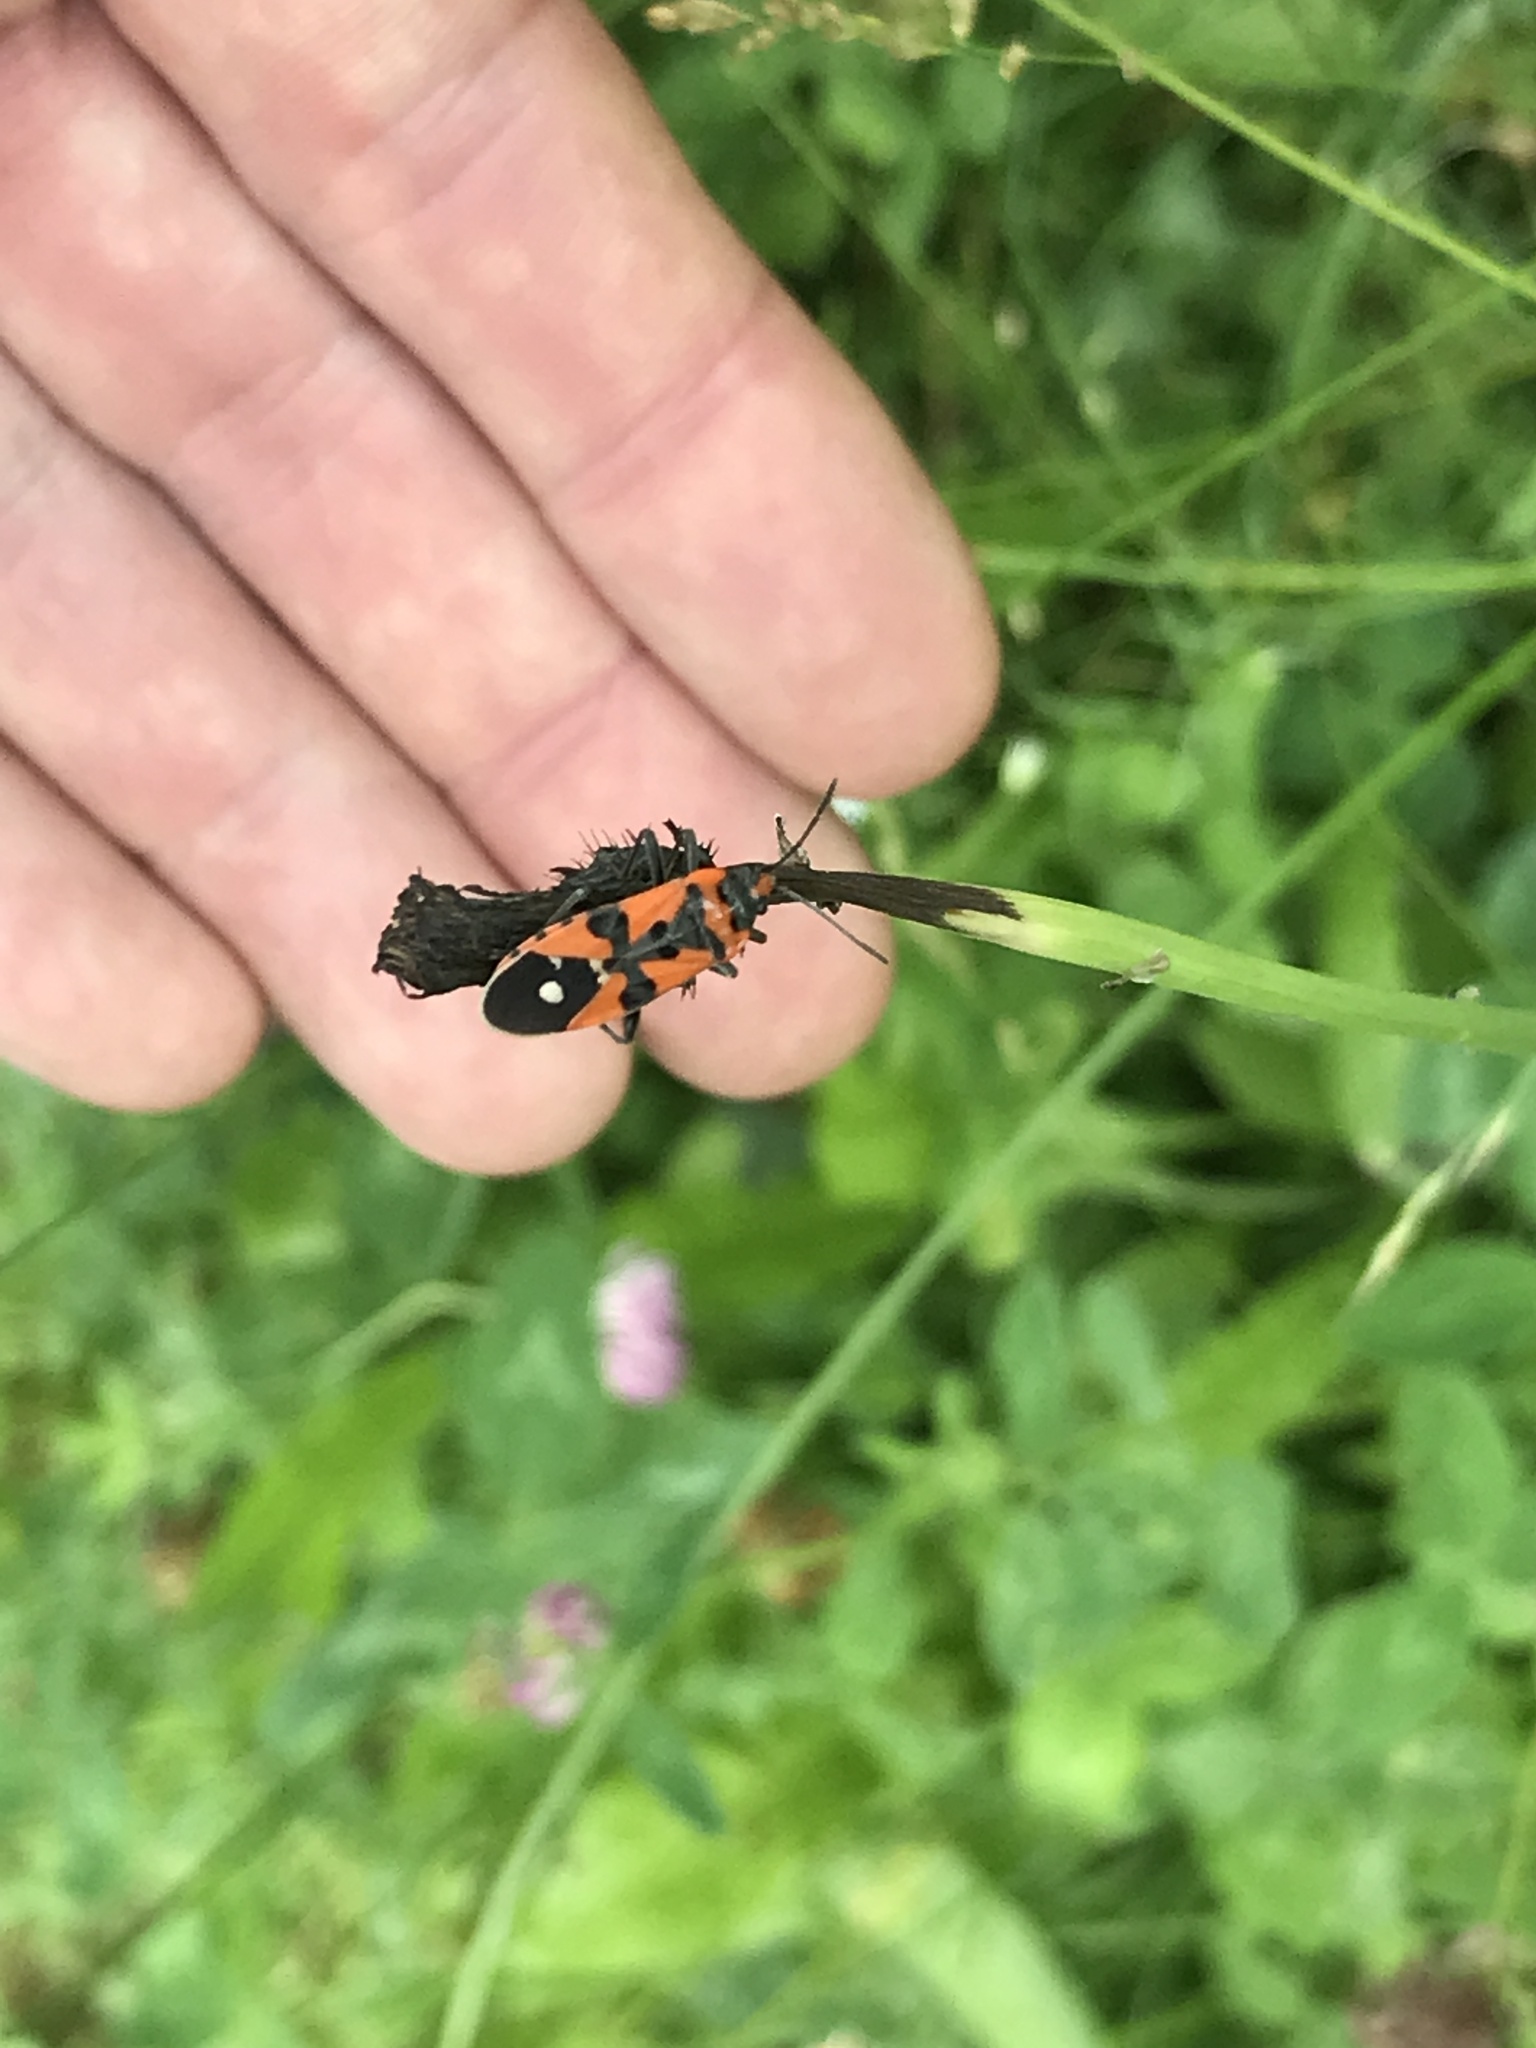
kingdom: Animalia
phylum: Arthropoda
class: Insecta
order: Hemiptera
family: Lygaeidae
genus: Lygaeus
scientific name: Lygaeus equestris
